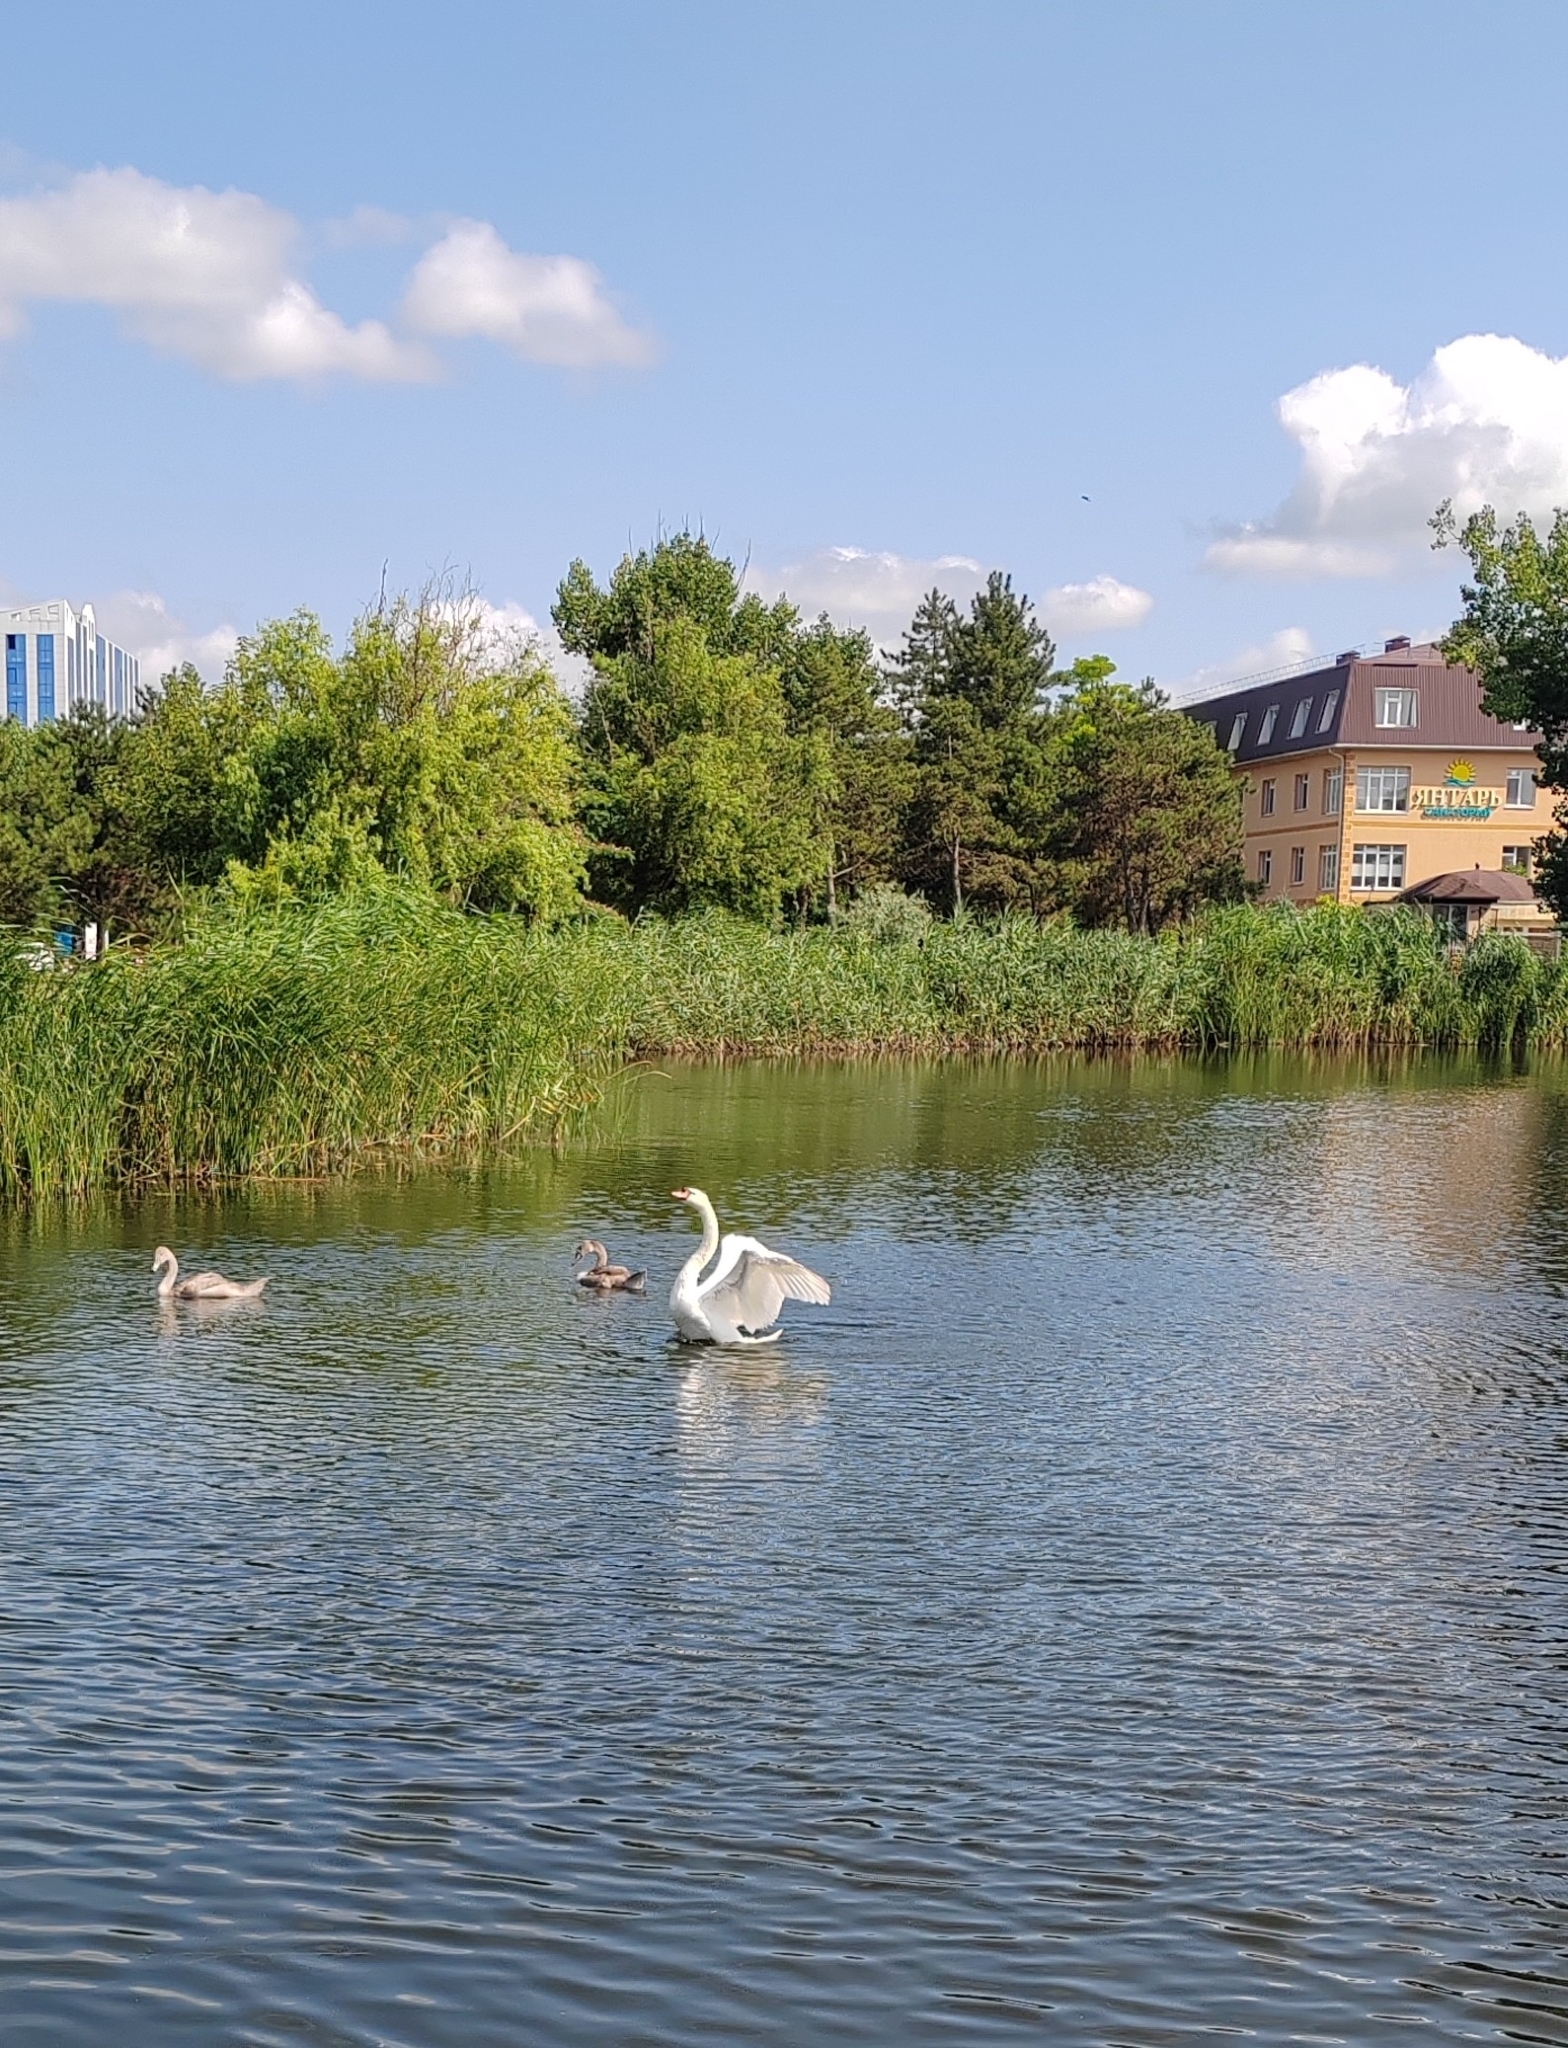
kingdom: Animalia
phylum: Chordata
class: Aves
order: Anseriformes
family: Anatidae
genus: Cygnus
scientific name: Cygnus olor
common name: Mute swan
